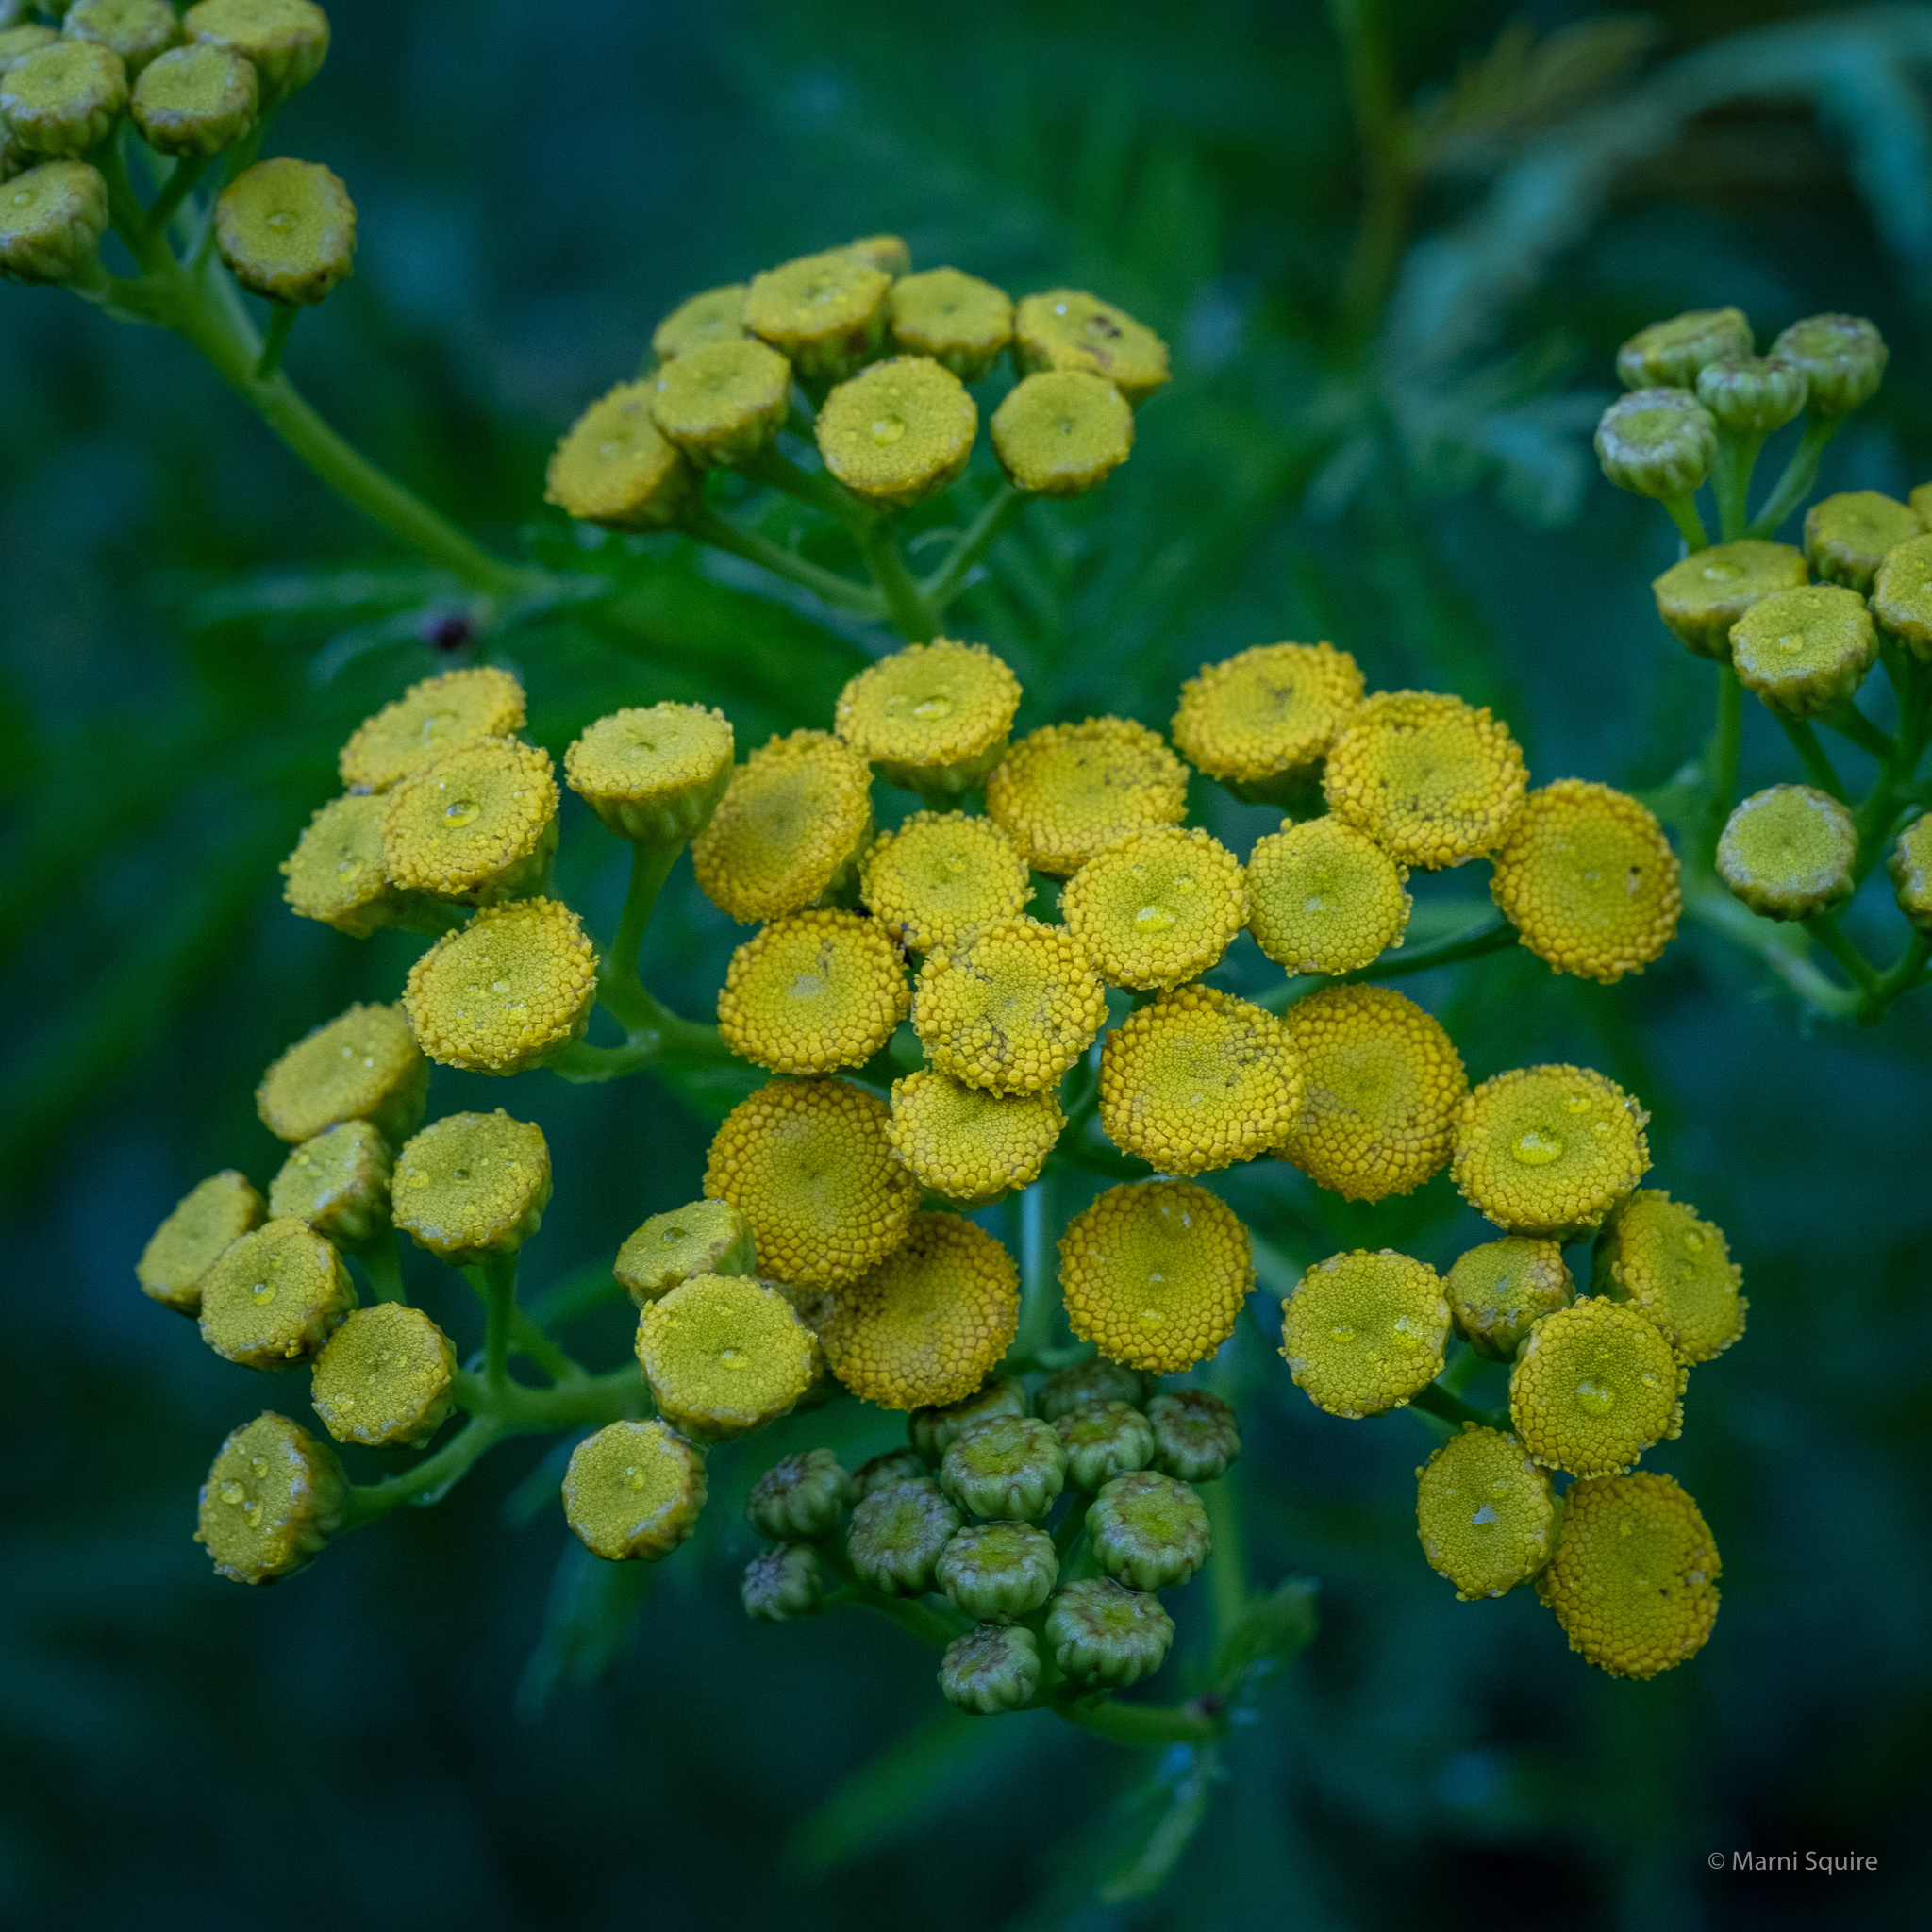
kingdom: Plantae
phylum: Tracheophyta
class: Magnoliopsida
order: Asterales
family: Asteraceae
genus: Tanacetum
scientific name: Tanacetum vulgare
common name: Common tansy
